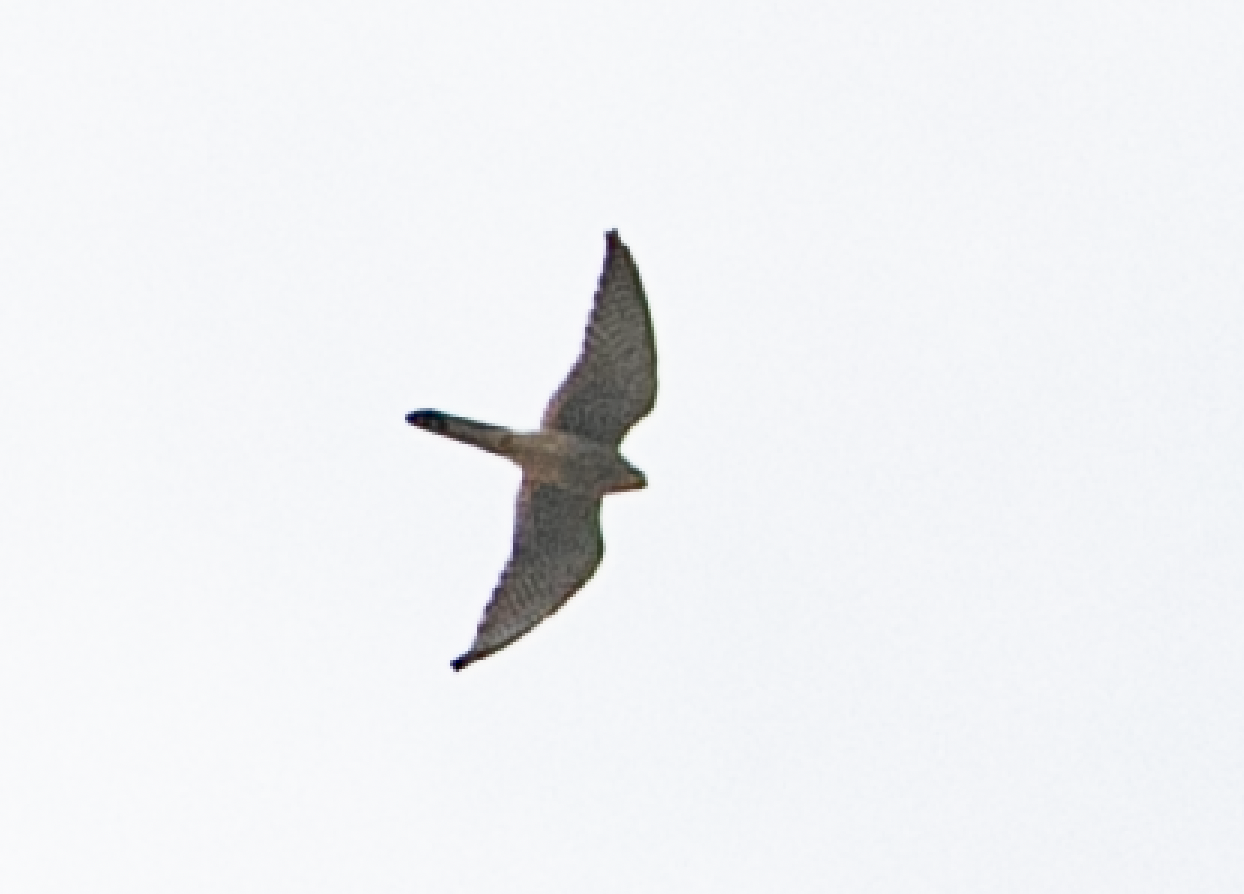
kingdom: Animalia
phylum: Chordata
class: Aves
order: Falconiformes
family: Falconidae
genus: Falco
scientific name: Falco tinnunculus
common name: Common kestrel
